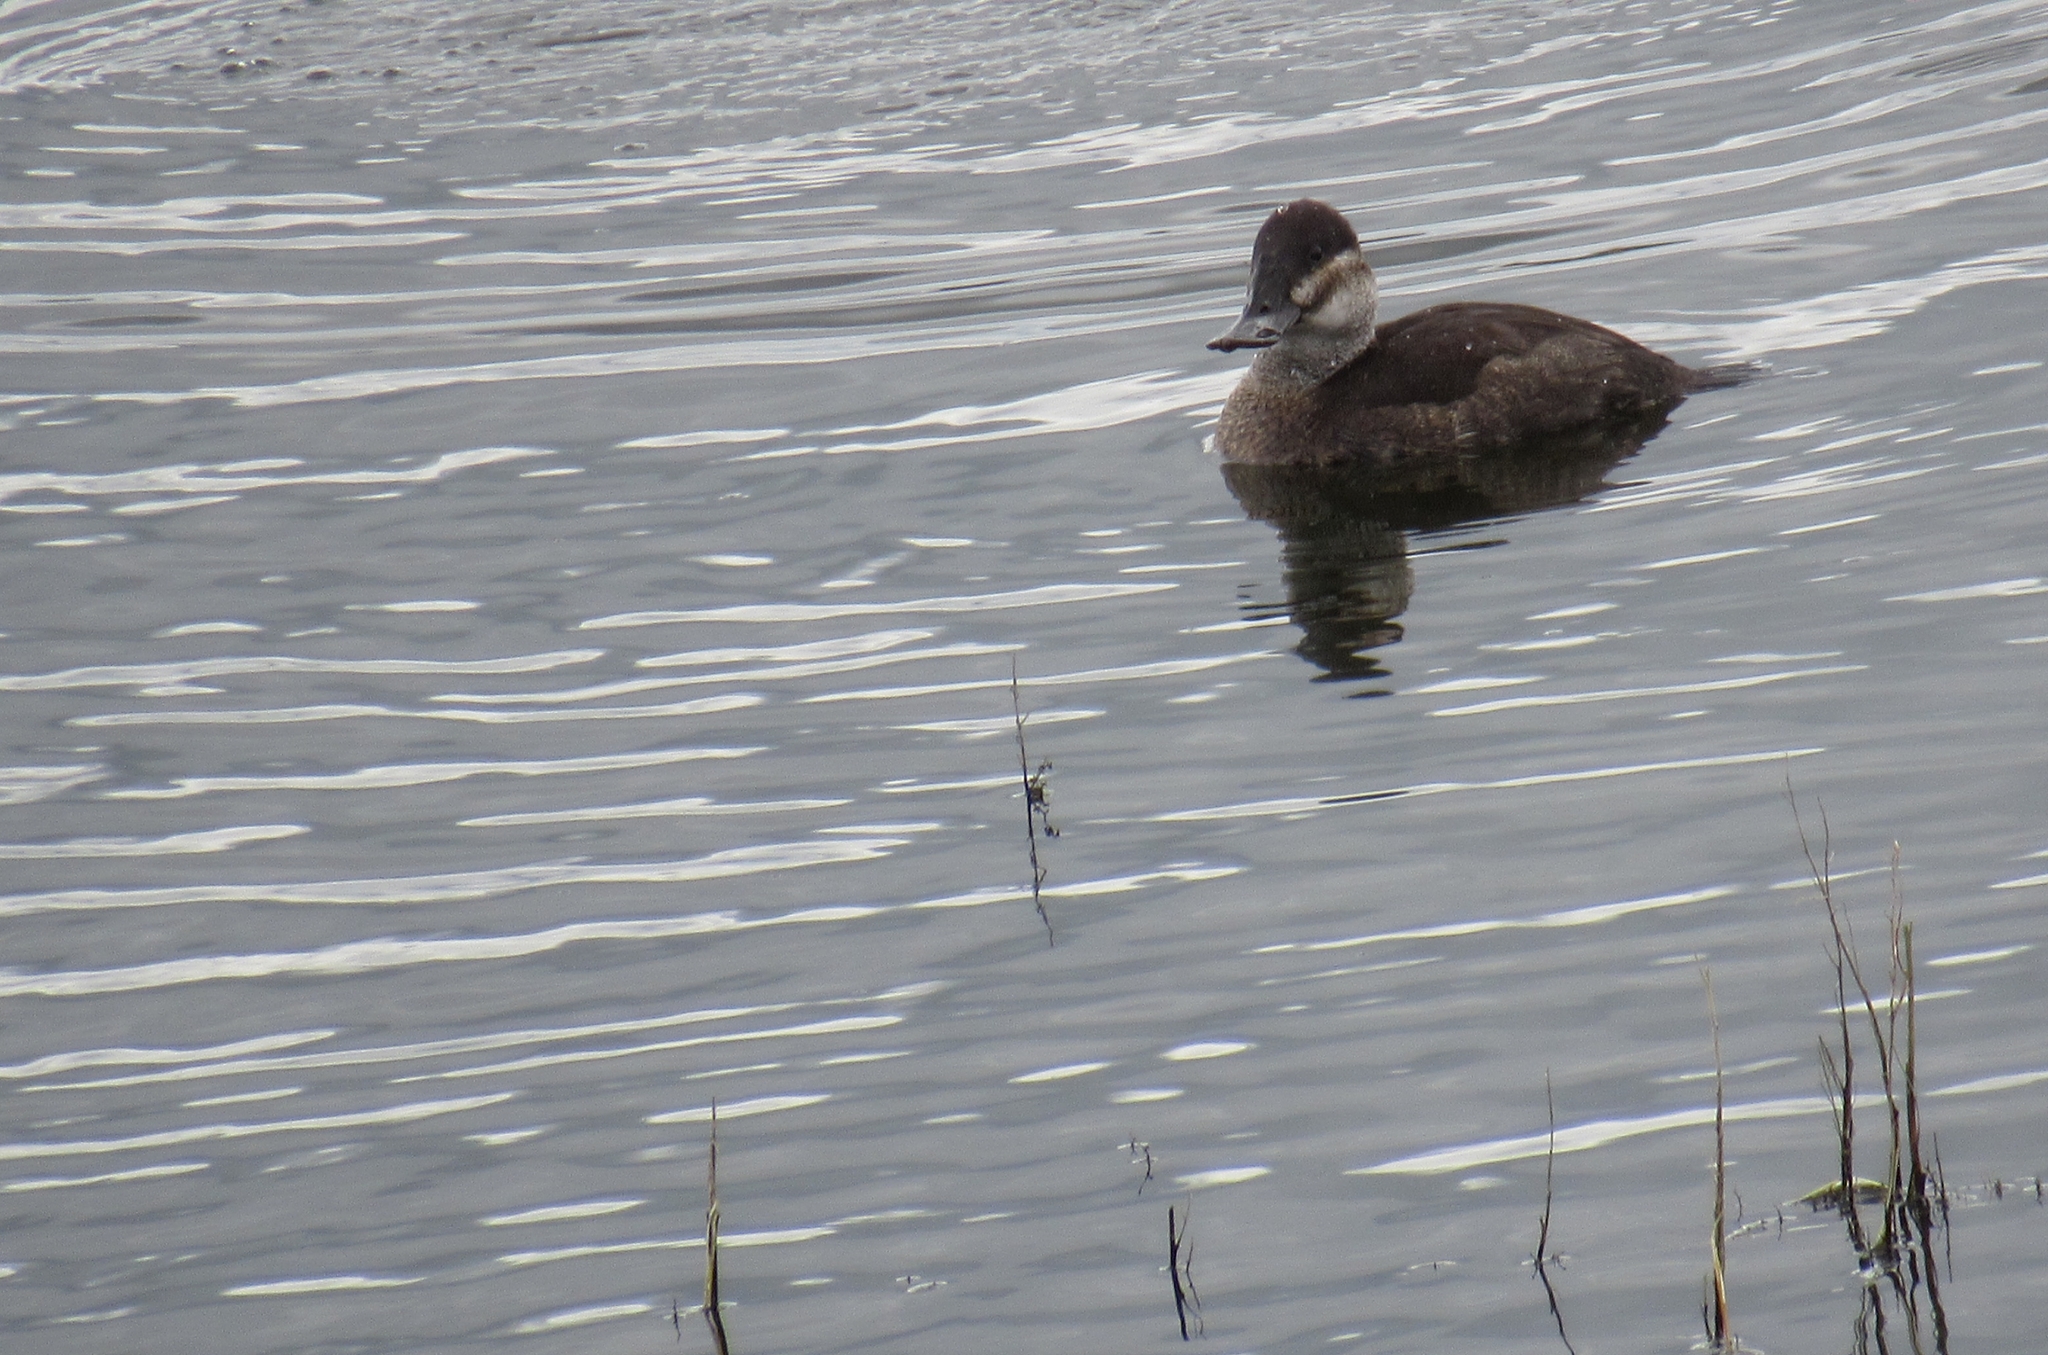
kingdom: Animalia
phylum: Chordata
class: Aves
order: Anseriformes
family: Anatidae
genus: Oxyura
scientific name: Oxyura jamaicensis
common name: Ruddy duck
